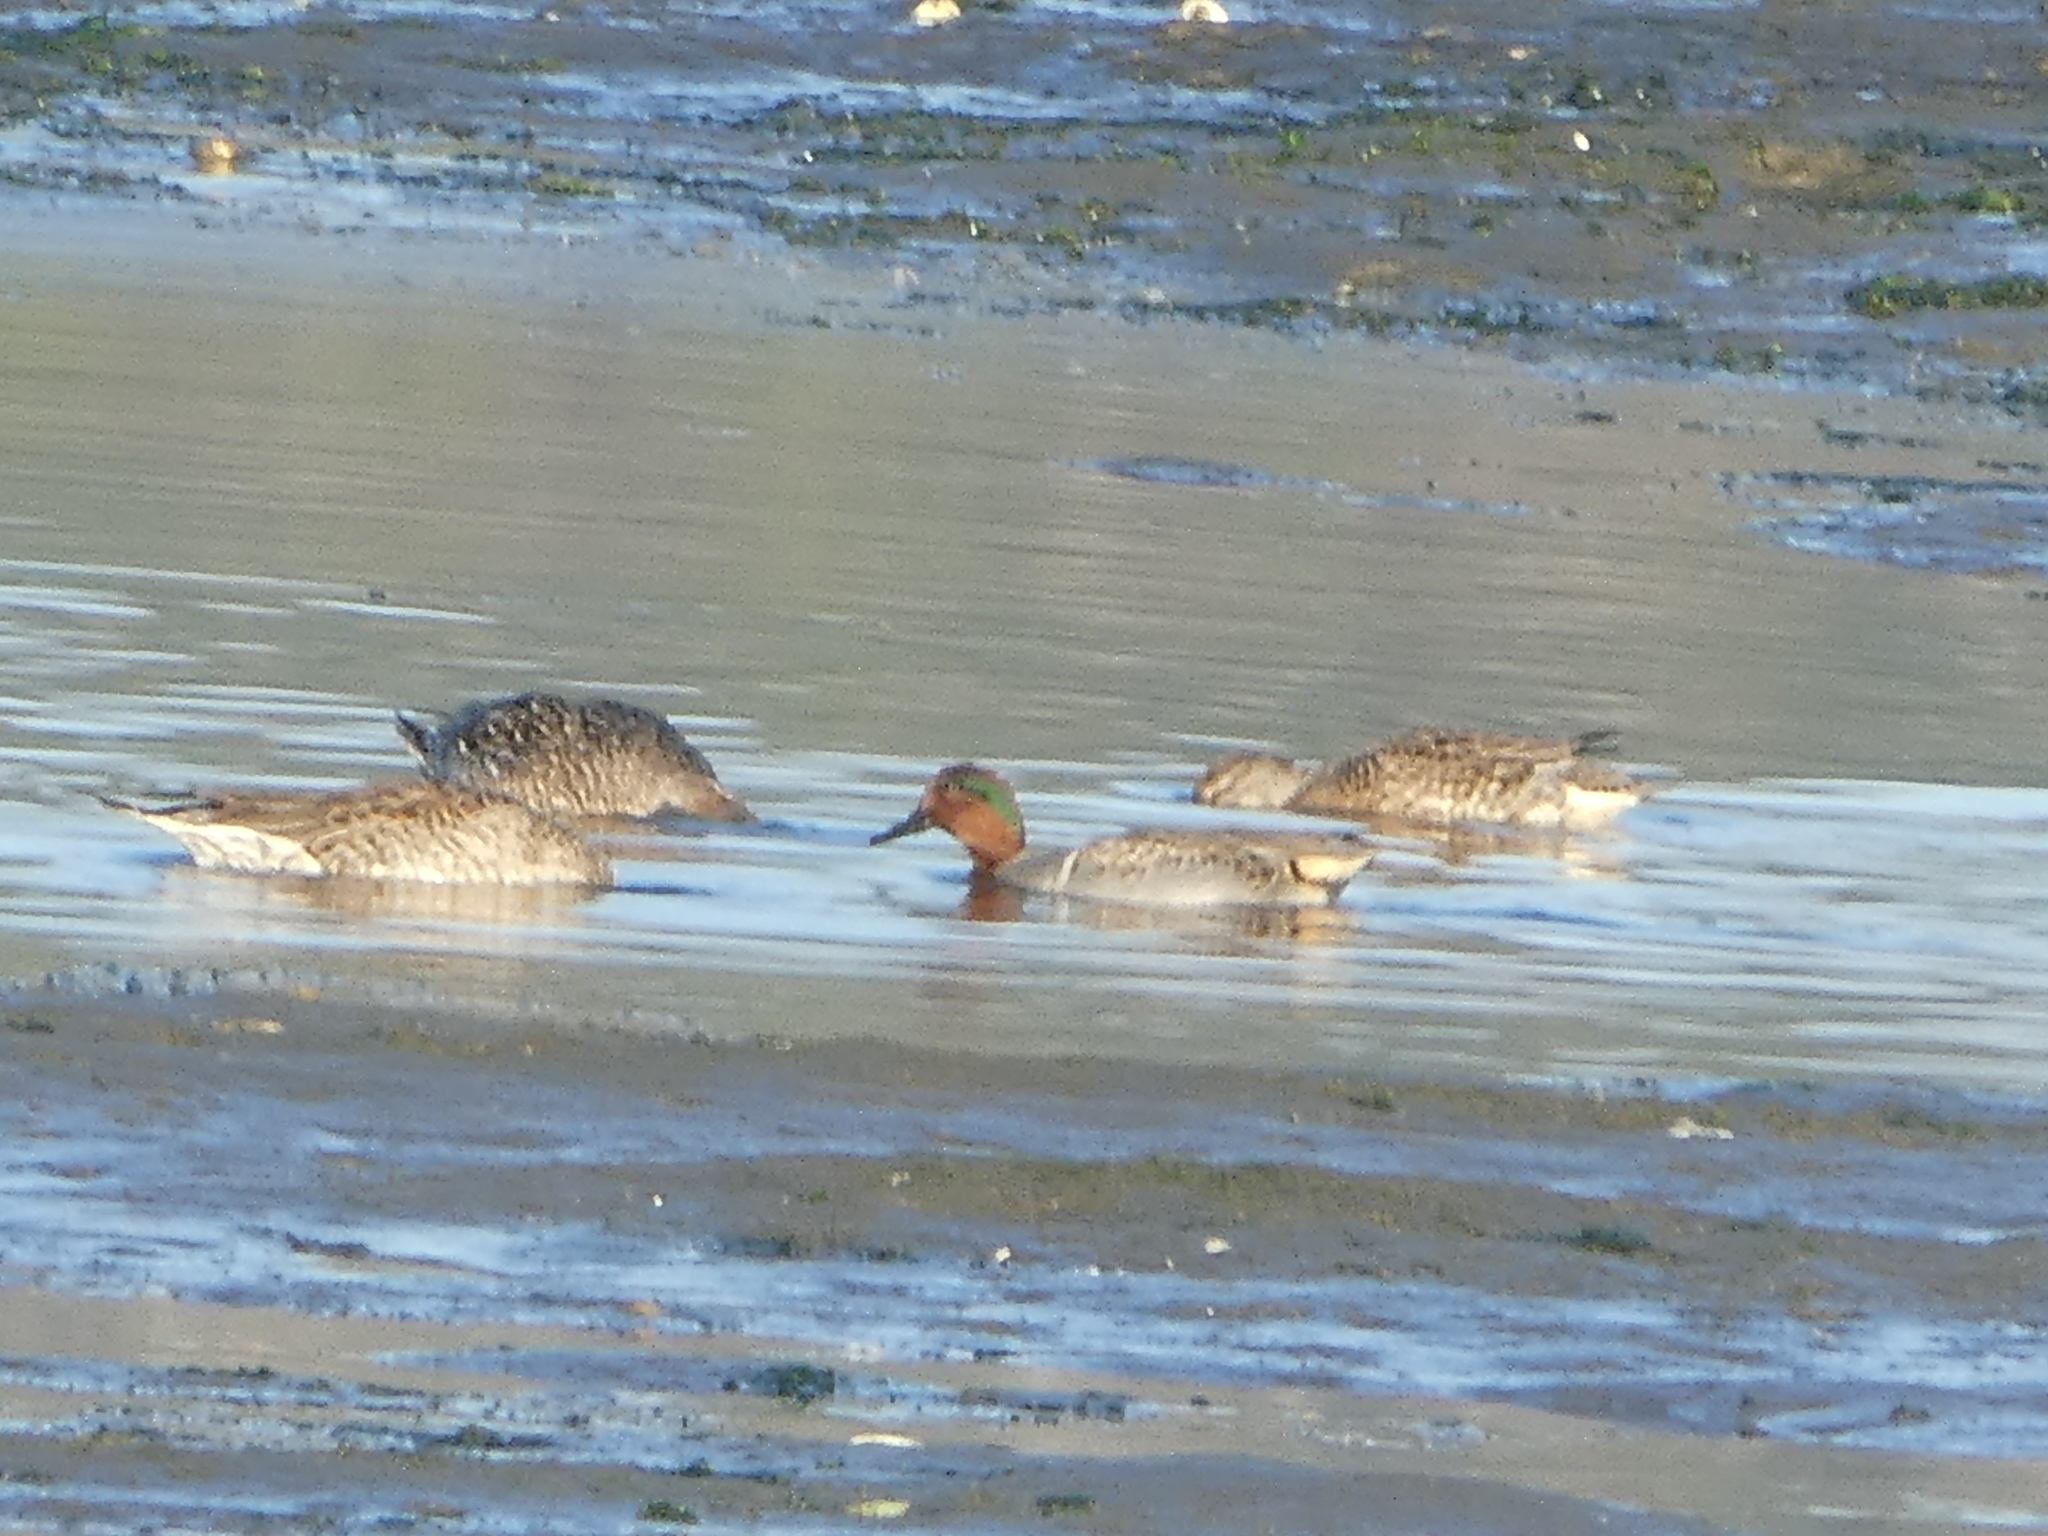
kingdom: Animalia
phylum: Chordata
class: Aves
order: Anseriformes
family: Anatidae
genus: Anas
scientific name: Anas crecca
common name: Eurasian teal
